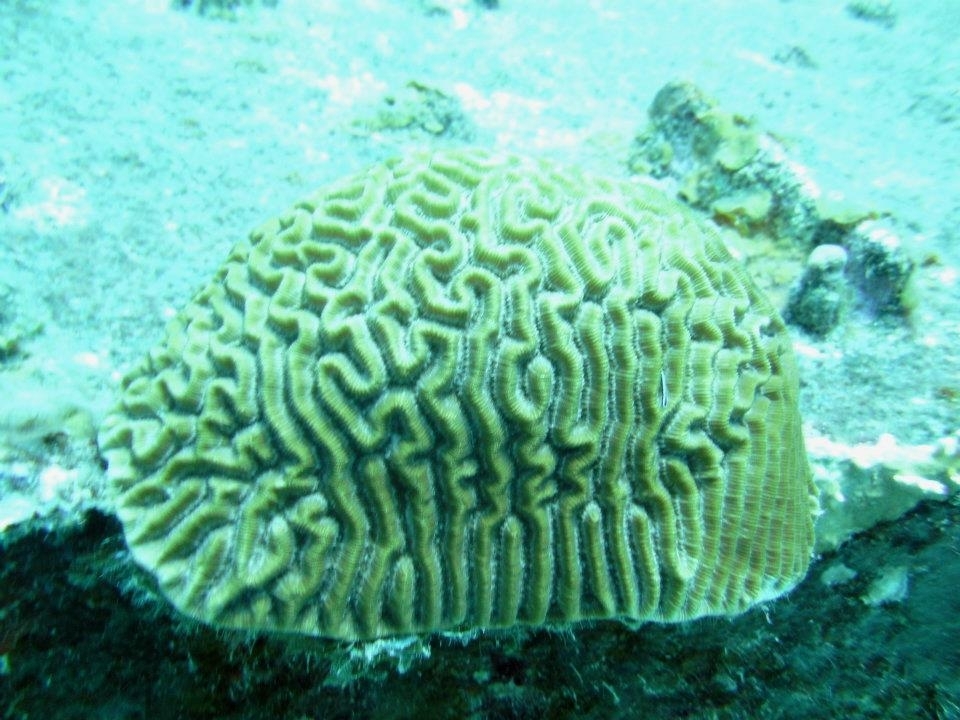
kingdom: Animalia
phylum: Cnidaria
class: Anthozoa
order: Scleractinia
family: Faviidae
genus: Pseudodiploria
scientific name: Pseudodiploria strigosa
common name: Symmetrical brain coral
